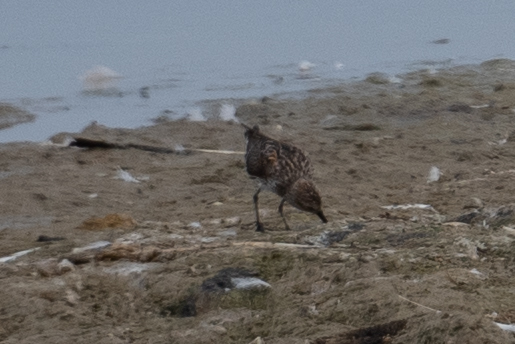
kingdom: Animalia
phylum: Chordata
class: Aves
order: Charadriiformes
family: Scolopacidae
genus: Calidris
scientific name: Calidris mauri
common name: Western sandpiper
